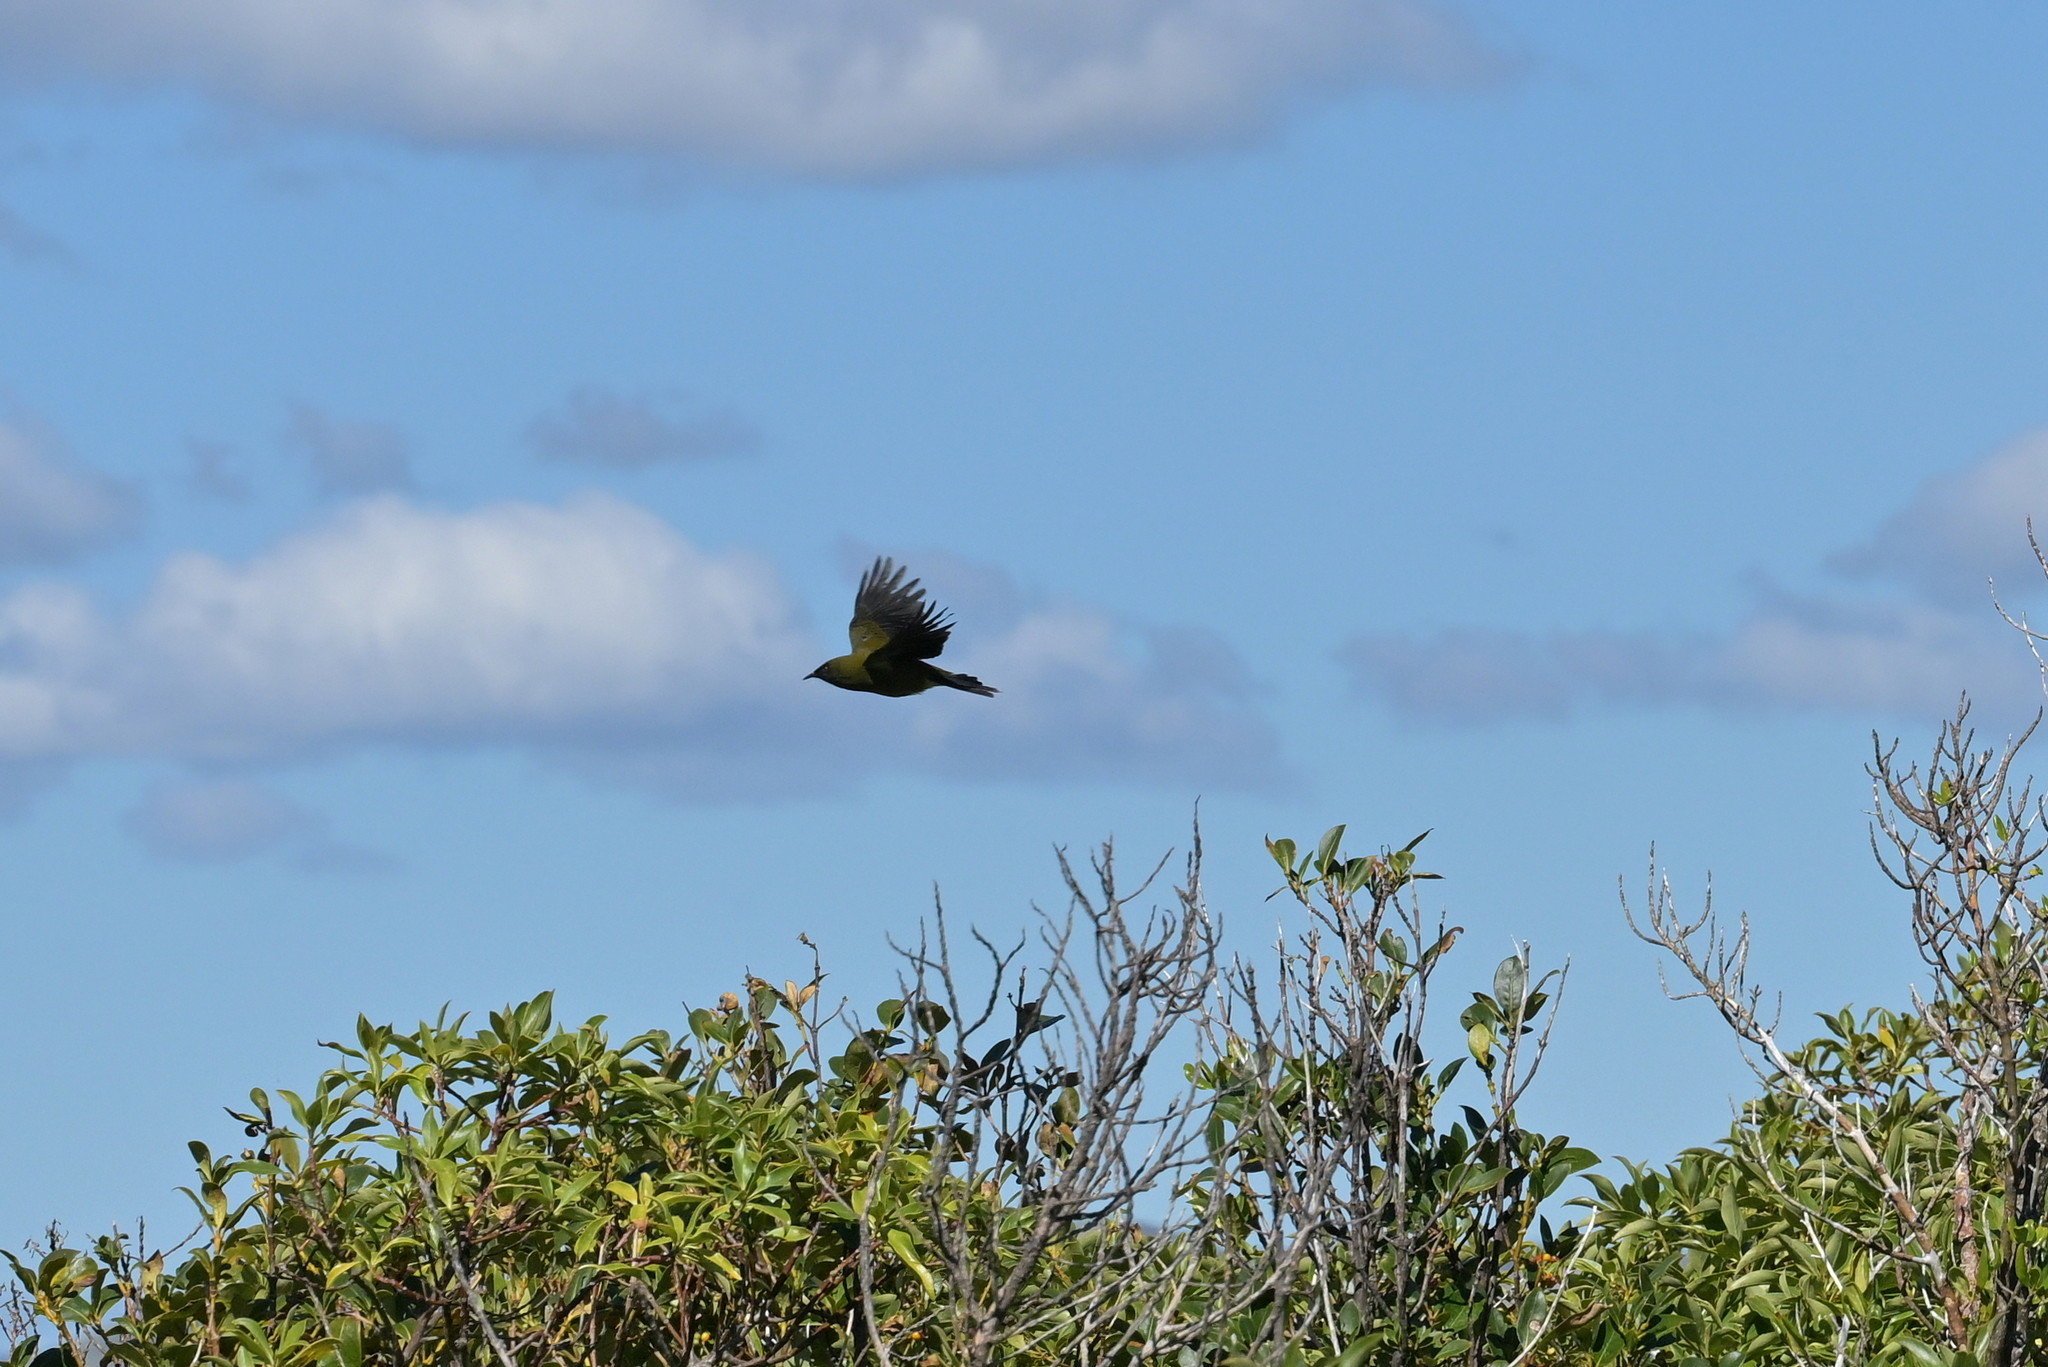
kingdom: Animalia
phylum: Chordata
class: Aves
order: Passeriformes
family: Meliphagidae
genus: Anthornis
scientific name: Anthornis melanura
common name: New zealand bellbird
